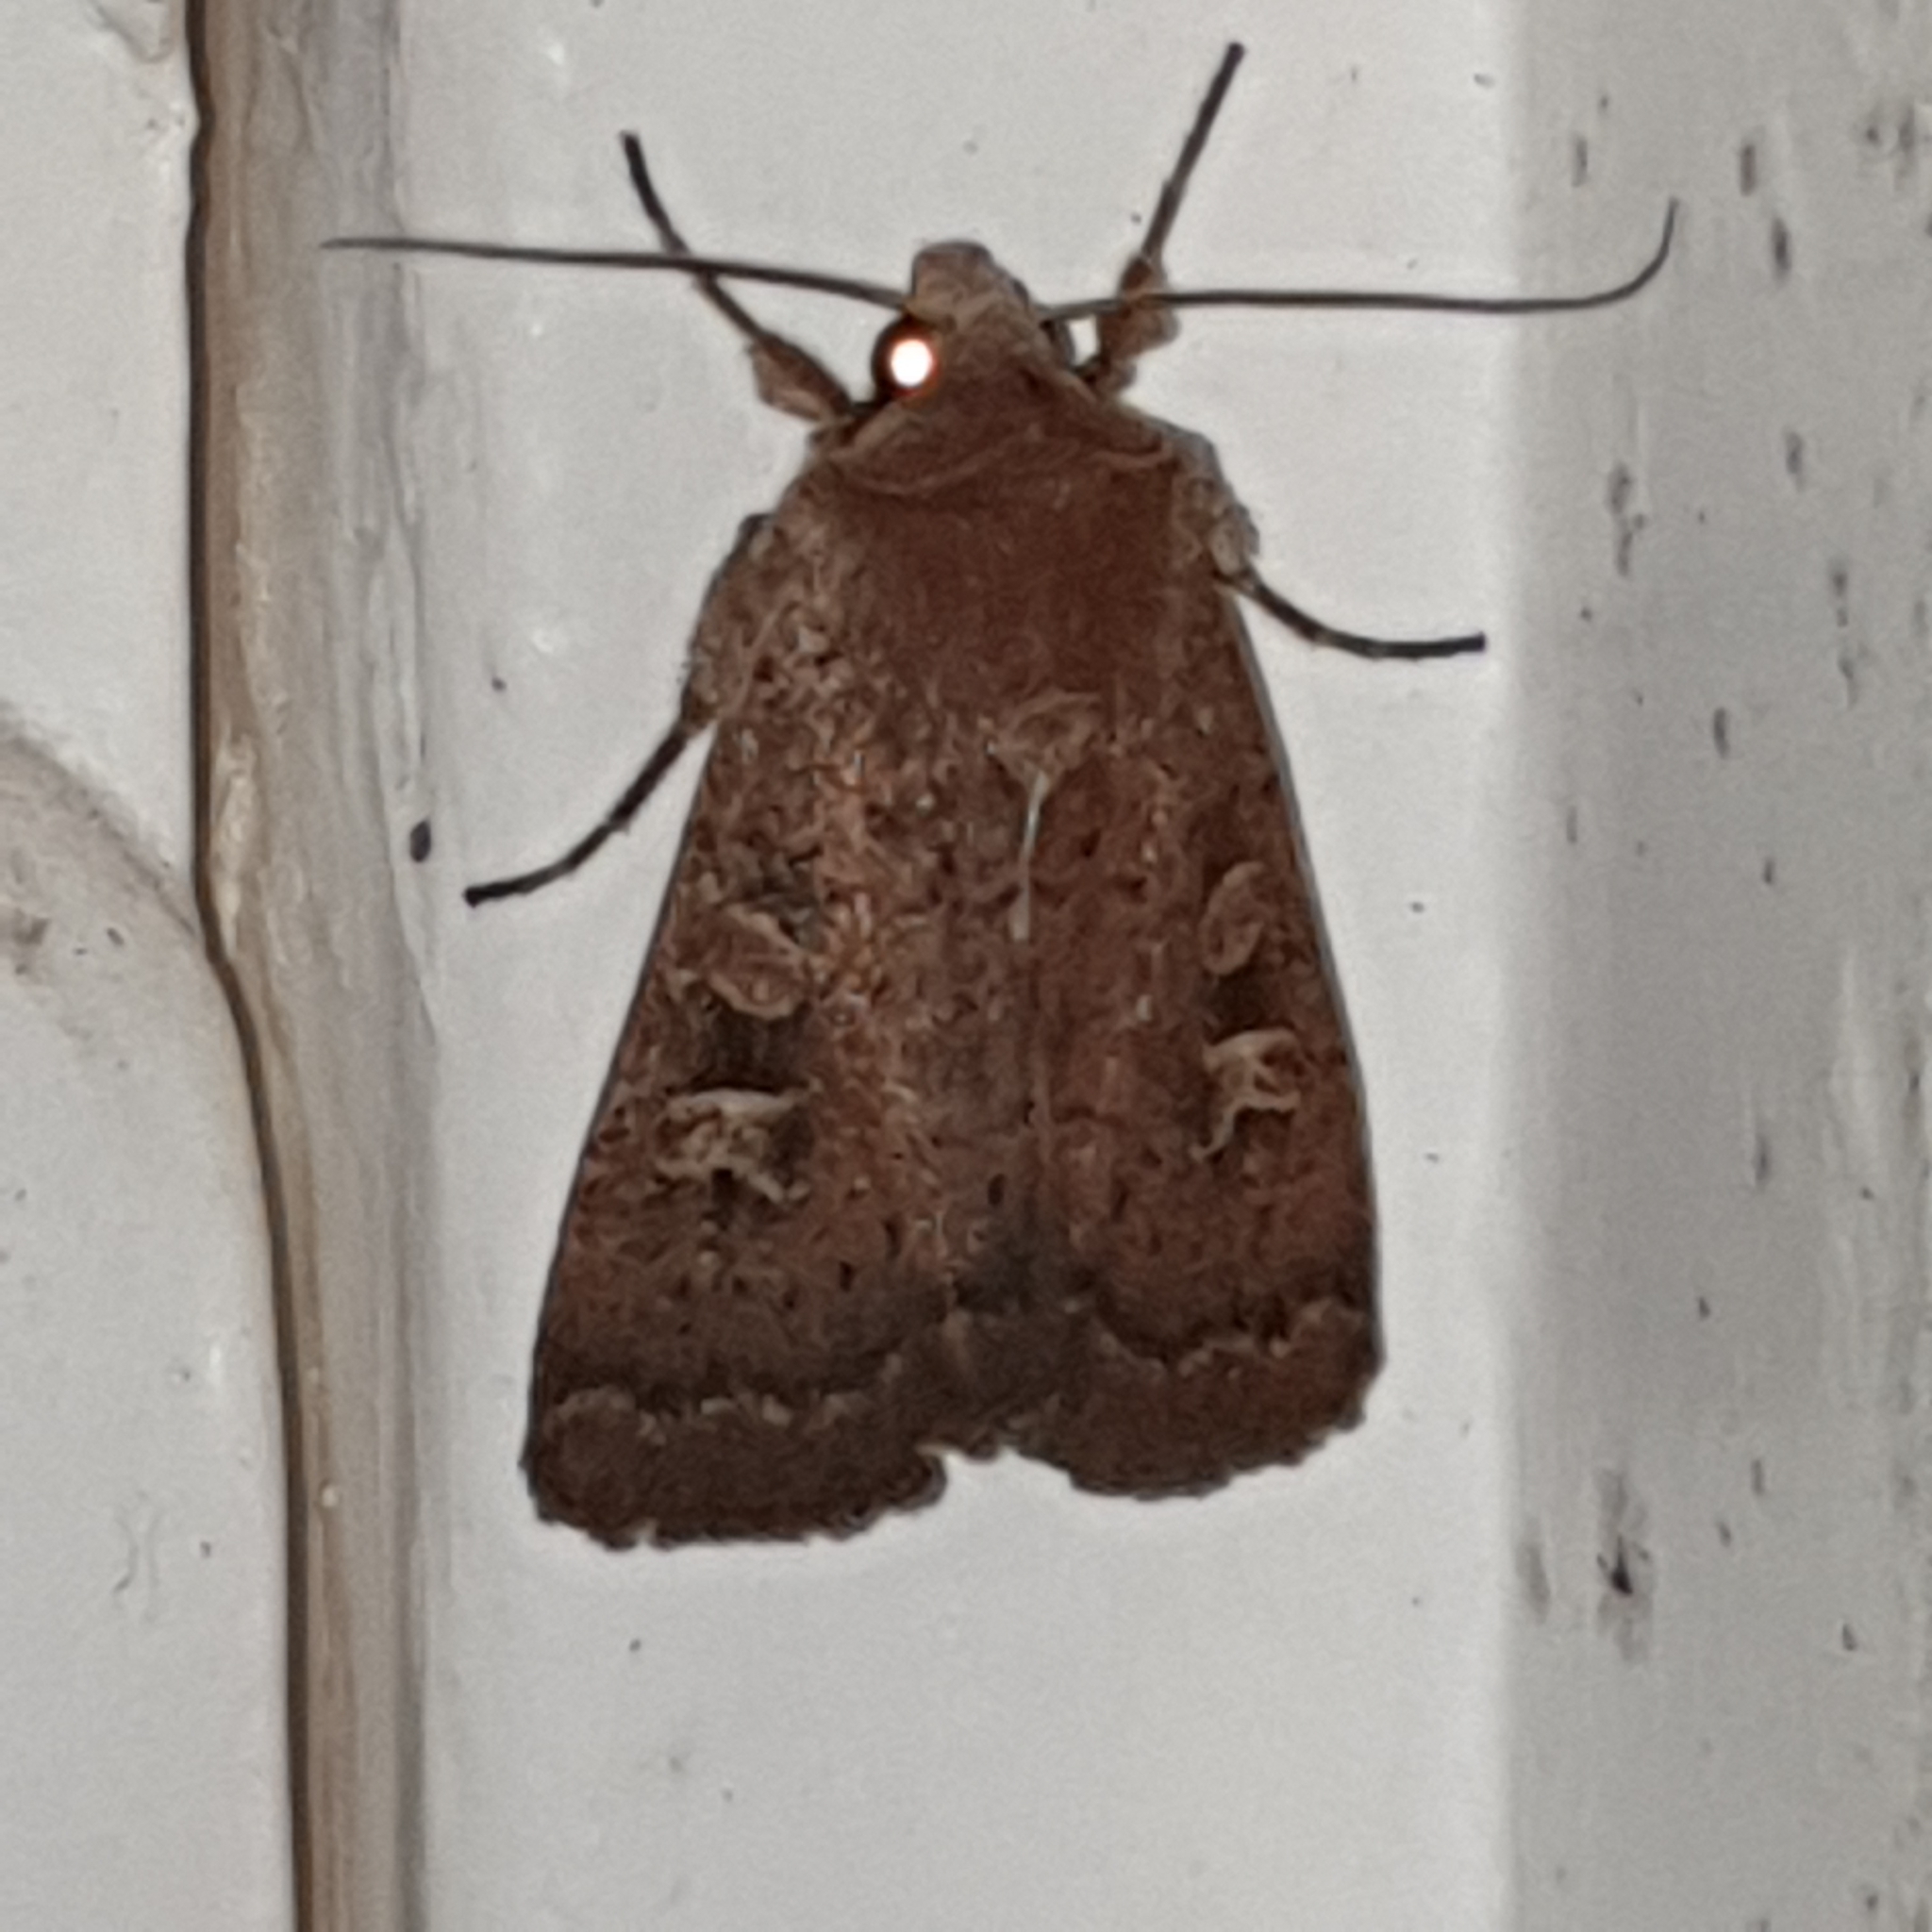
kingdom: Animalia
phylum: Arthropoda
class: Insecta
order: Lepidoptera
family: Noctuidae
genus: Xestia
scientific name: Xestia xanthographa
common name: Square-spot rustic
